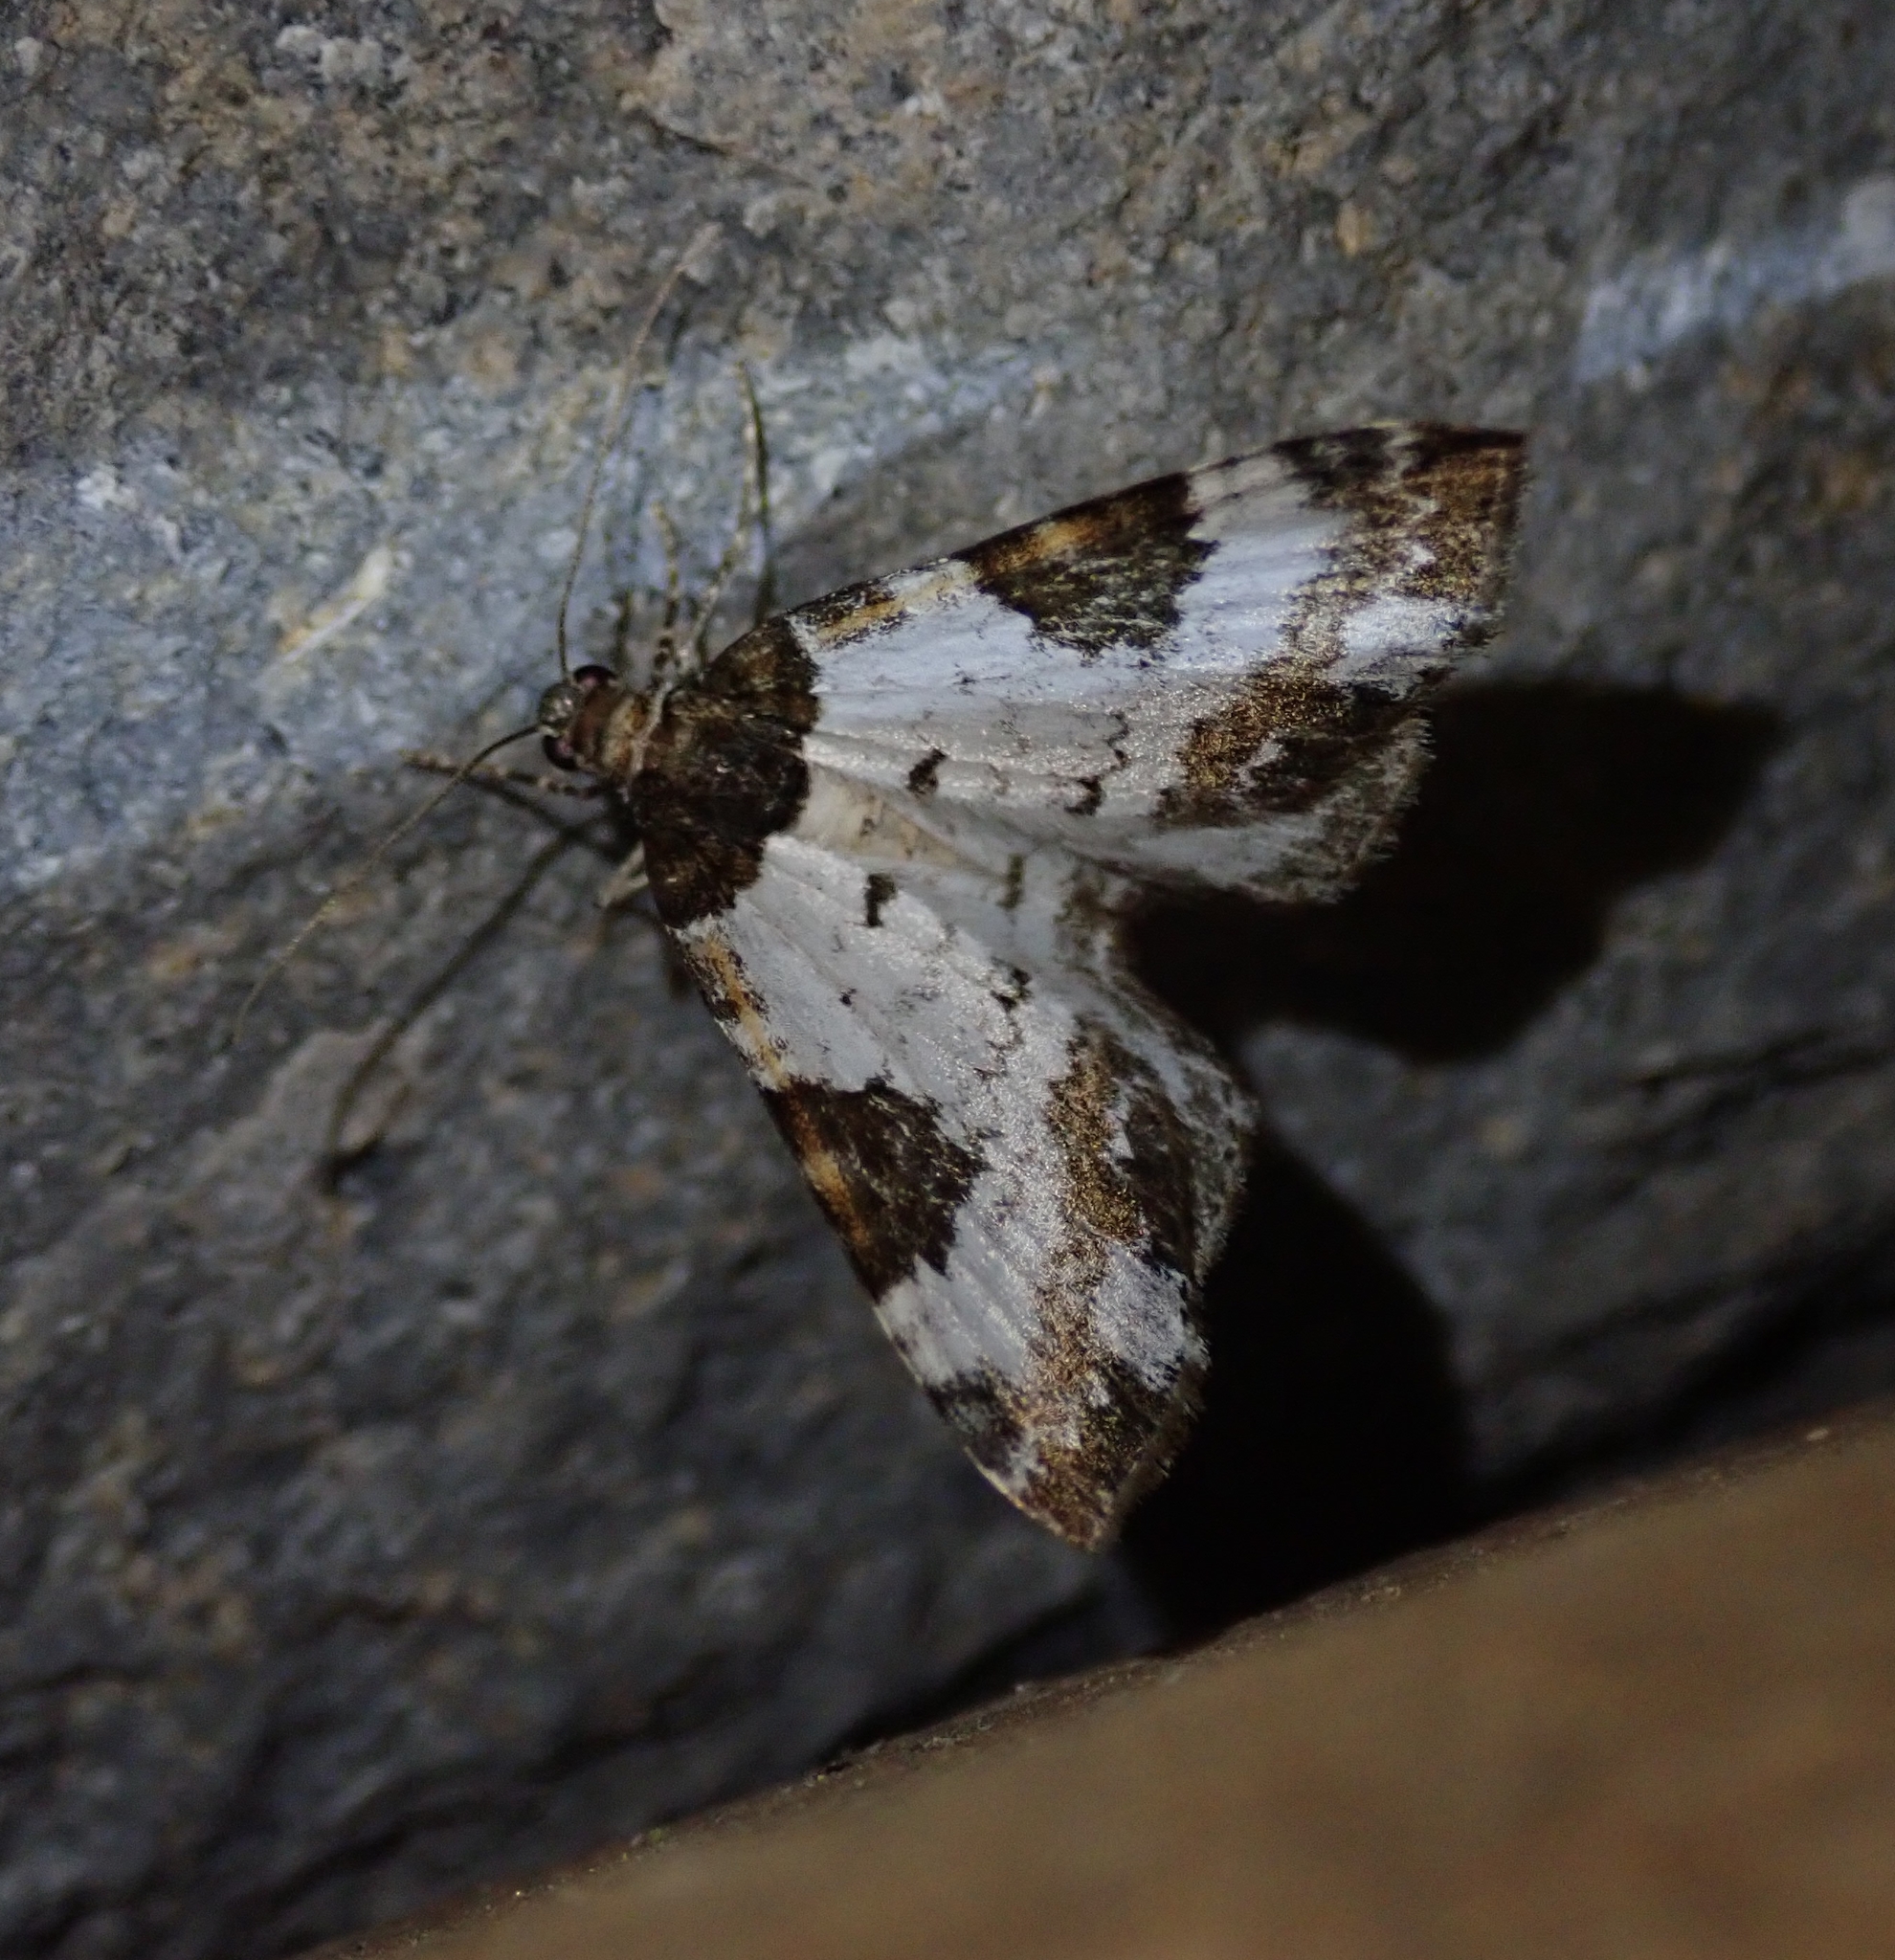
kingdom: Animalia
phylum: Arthropoda
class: Insecta
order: Lepidoptera
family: Geometridae
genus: Melanthia
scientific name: Melanthia procellata
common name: Pretty chalk carpet
